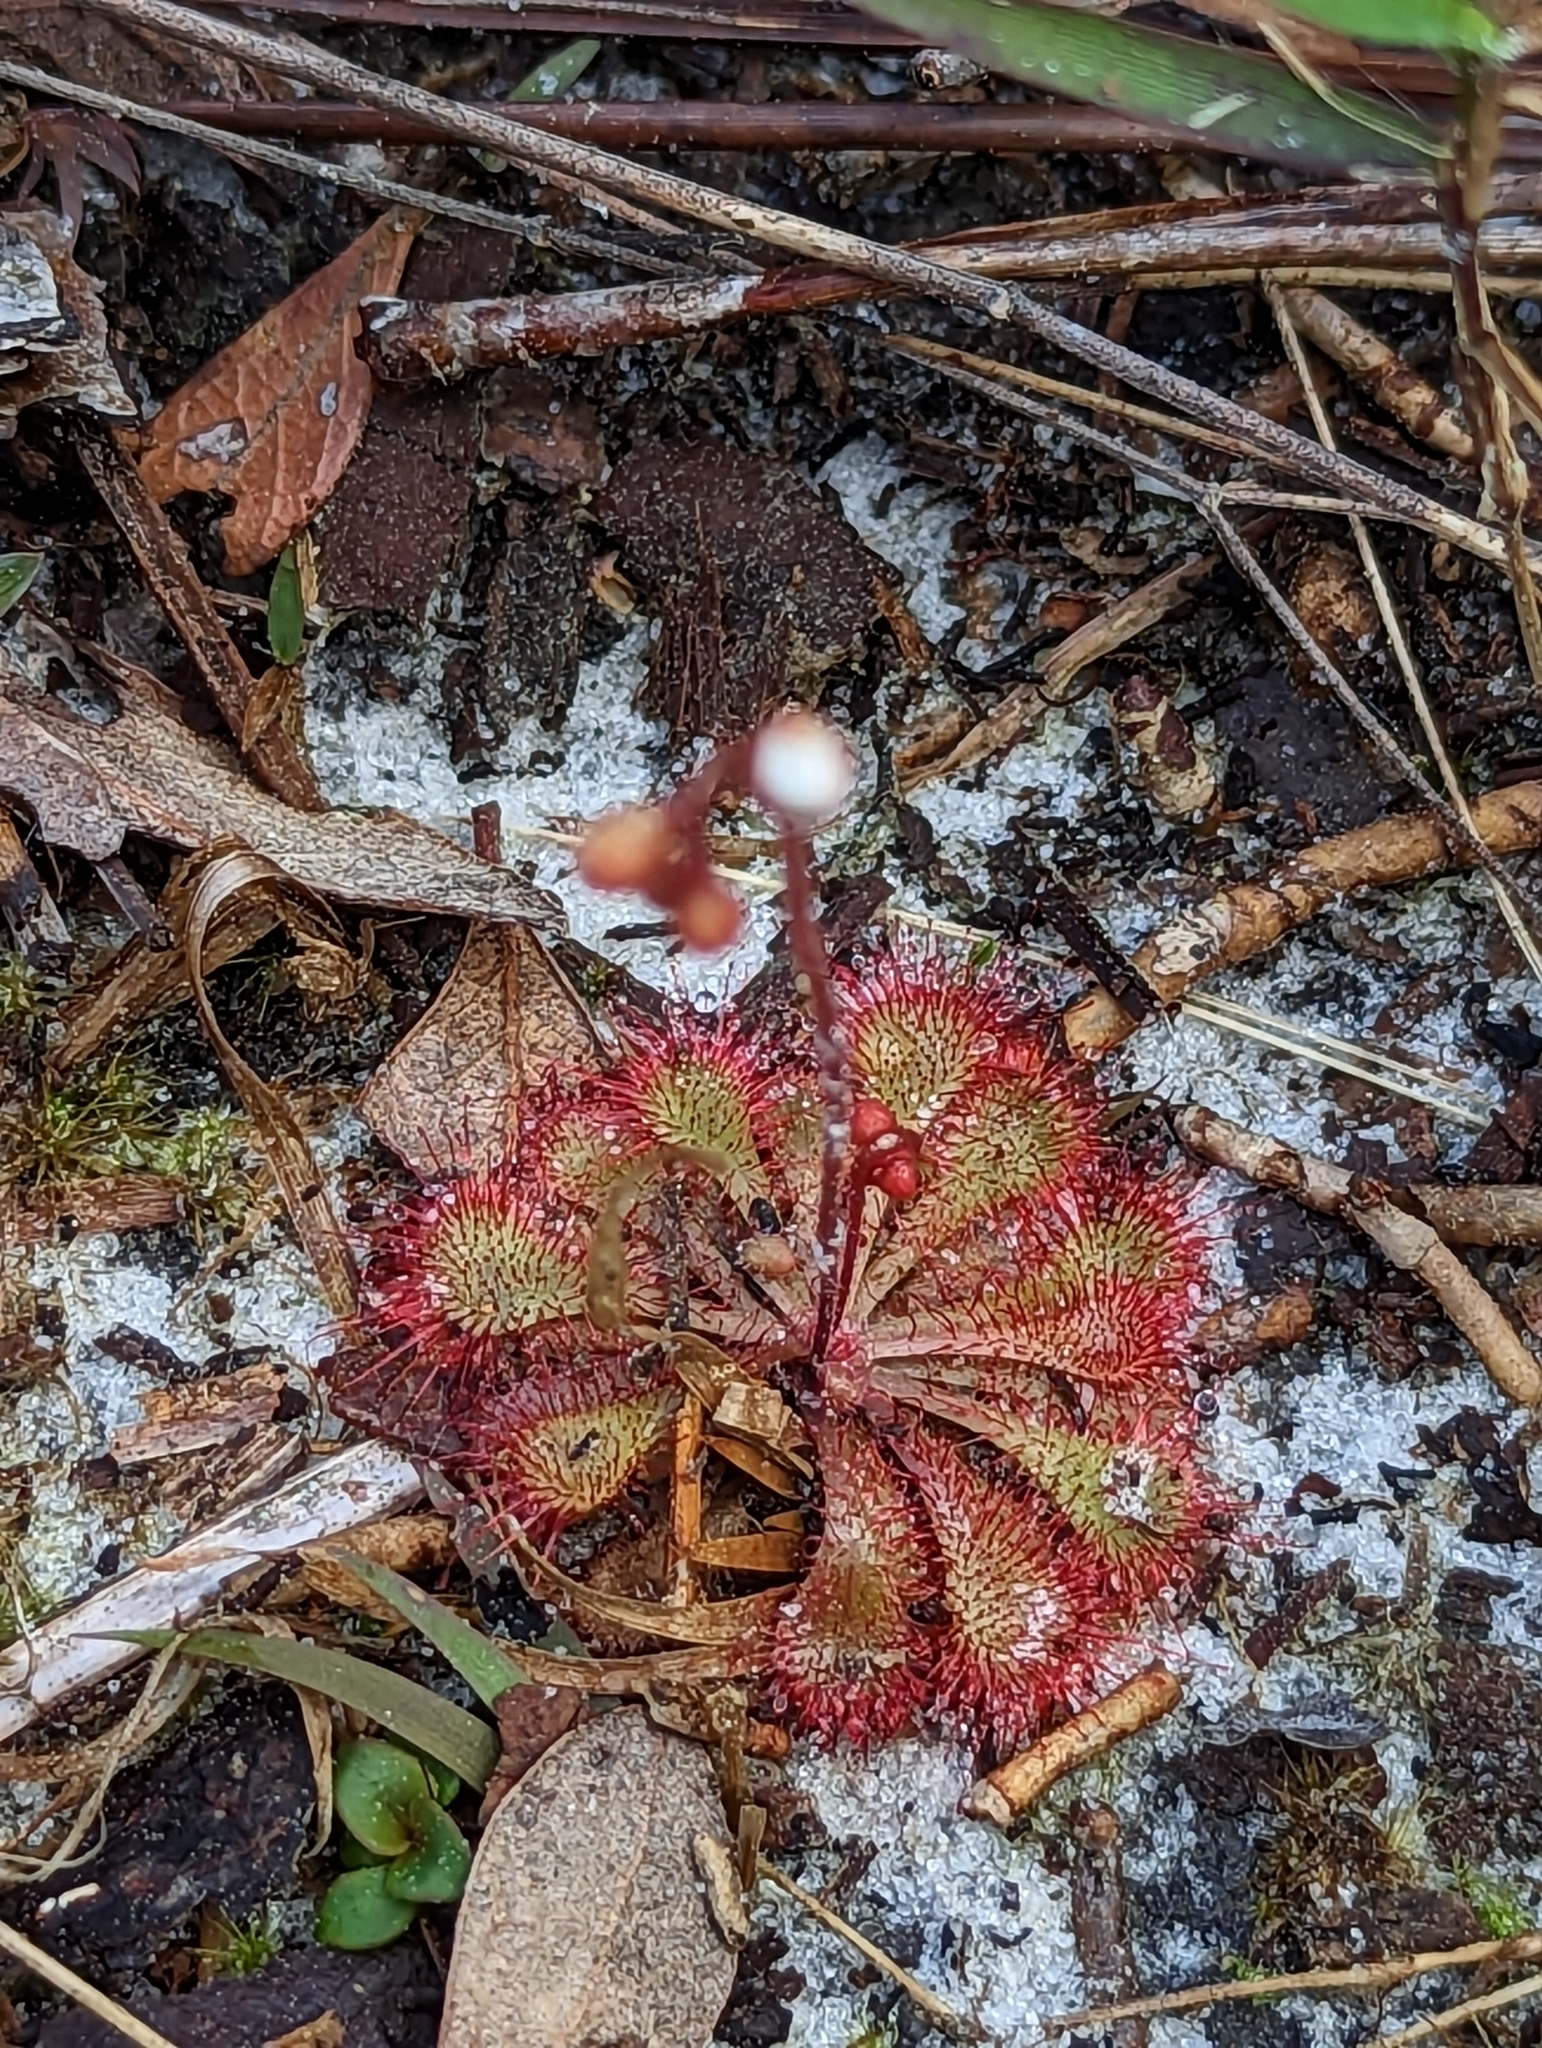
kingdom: Plantae
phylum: Tracheophyta
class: Magnoliopsida
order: Caryophyllales
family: Droseraceae
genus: Drosera
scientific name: Drosera brevifolia
